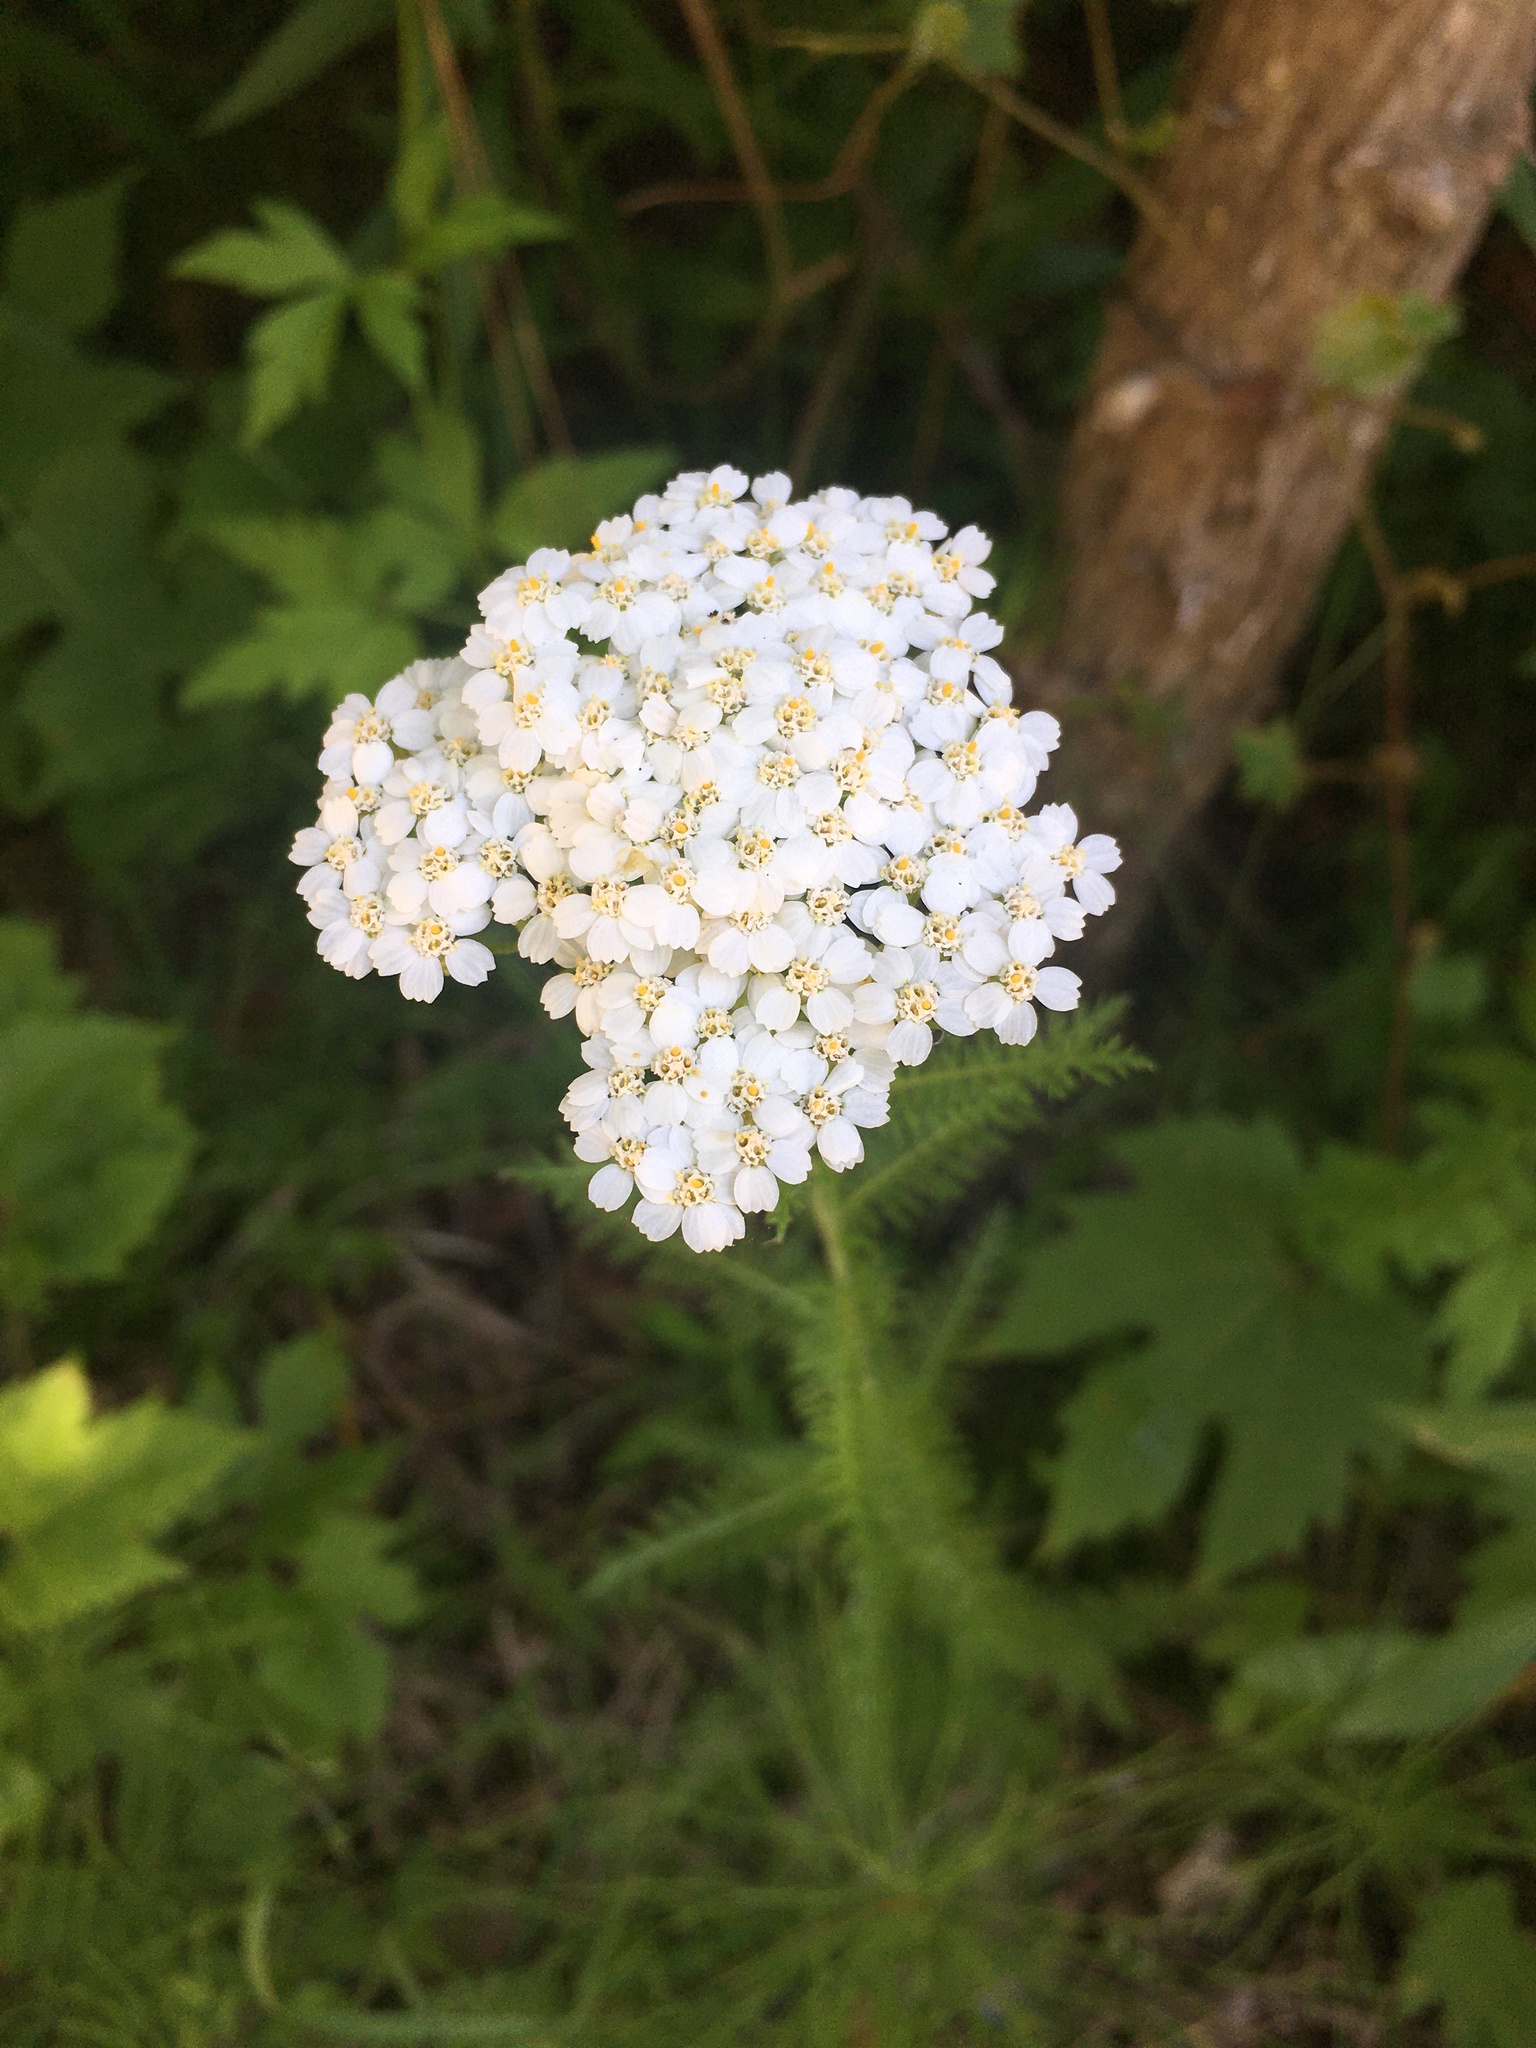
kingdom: Plantae
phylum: Tracheophyta
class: Magnoliopsida
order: Asterales
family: Asteraceae
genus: Achillea
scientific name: Achillea millefolium
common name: Yarrow
